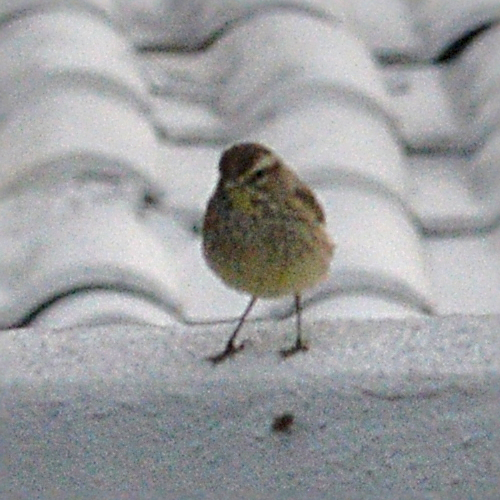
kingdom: Animalia
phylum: Chordata
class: Aves
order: Passeriformes
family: Parulidae
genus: Setophaga
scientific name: Setophaga palmarum
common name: Palm warbler
